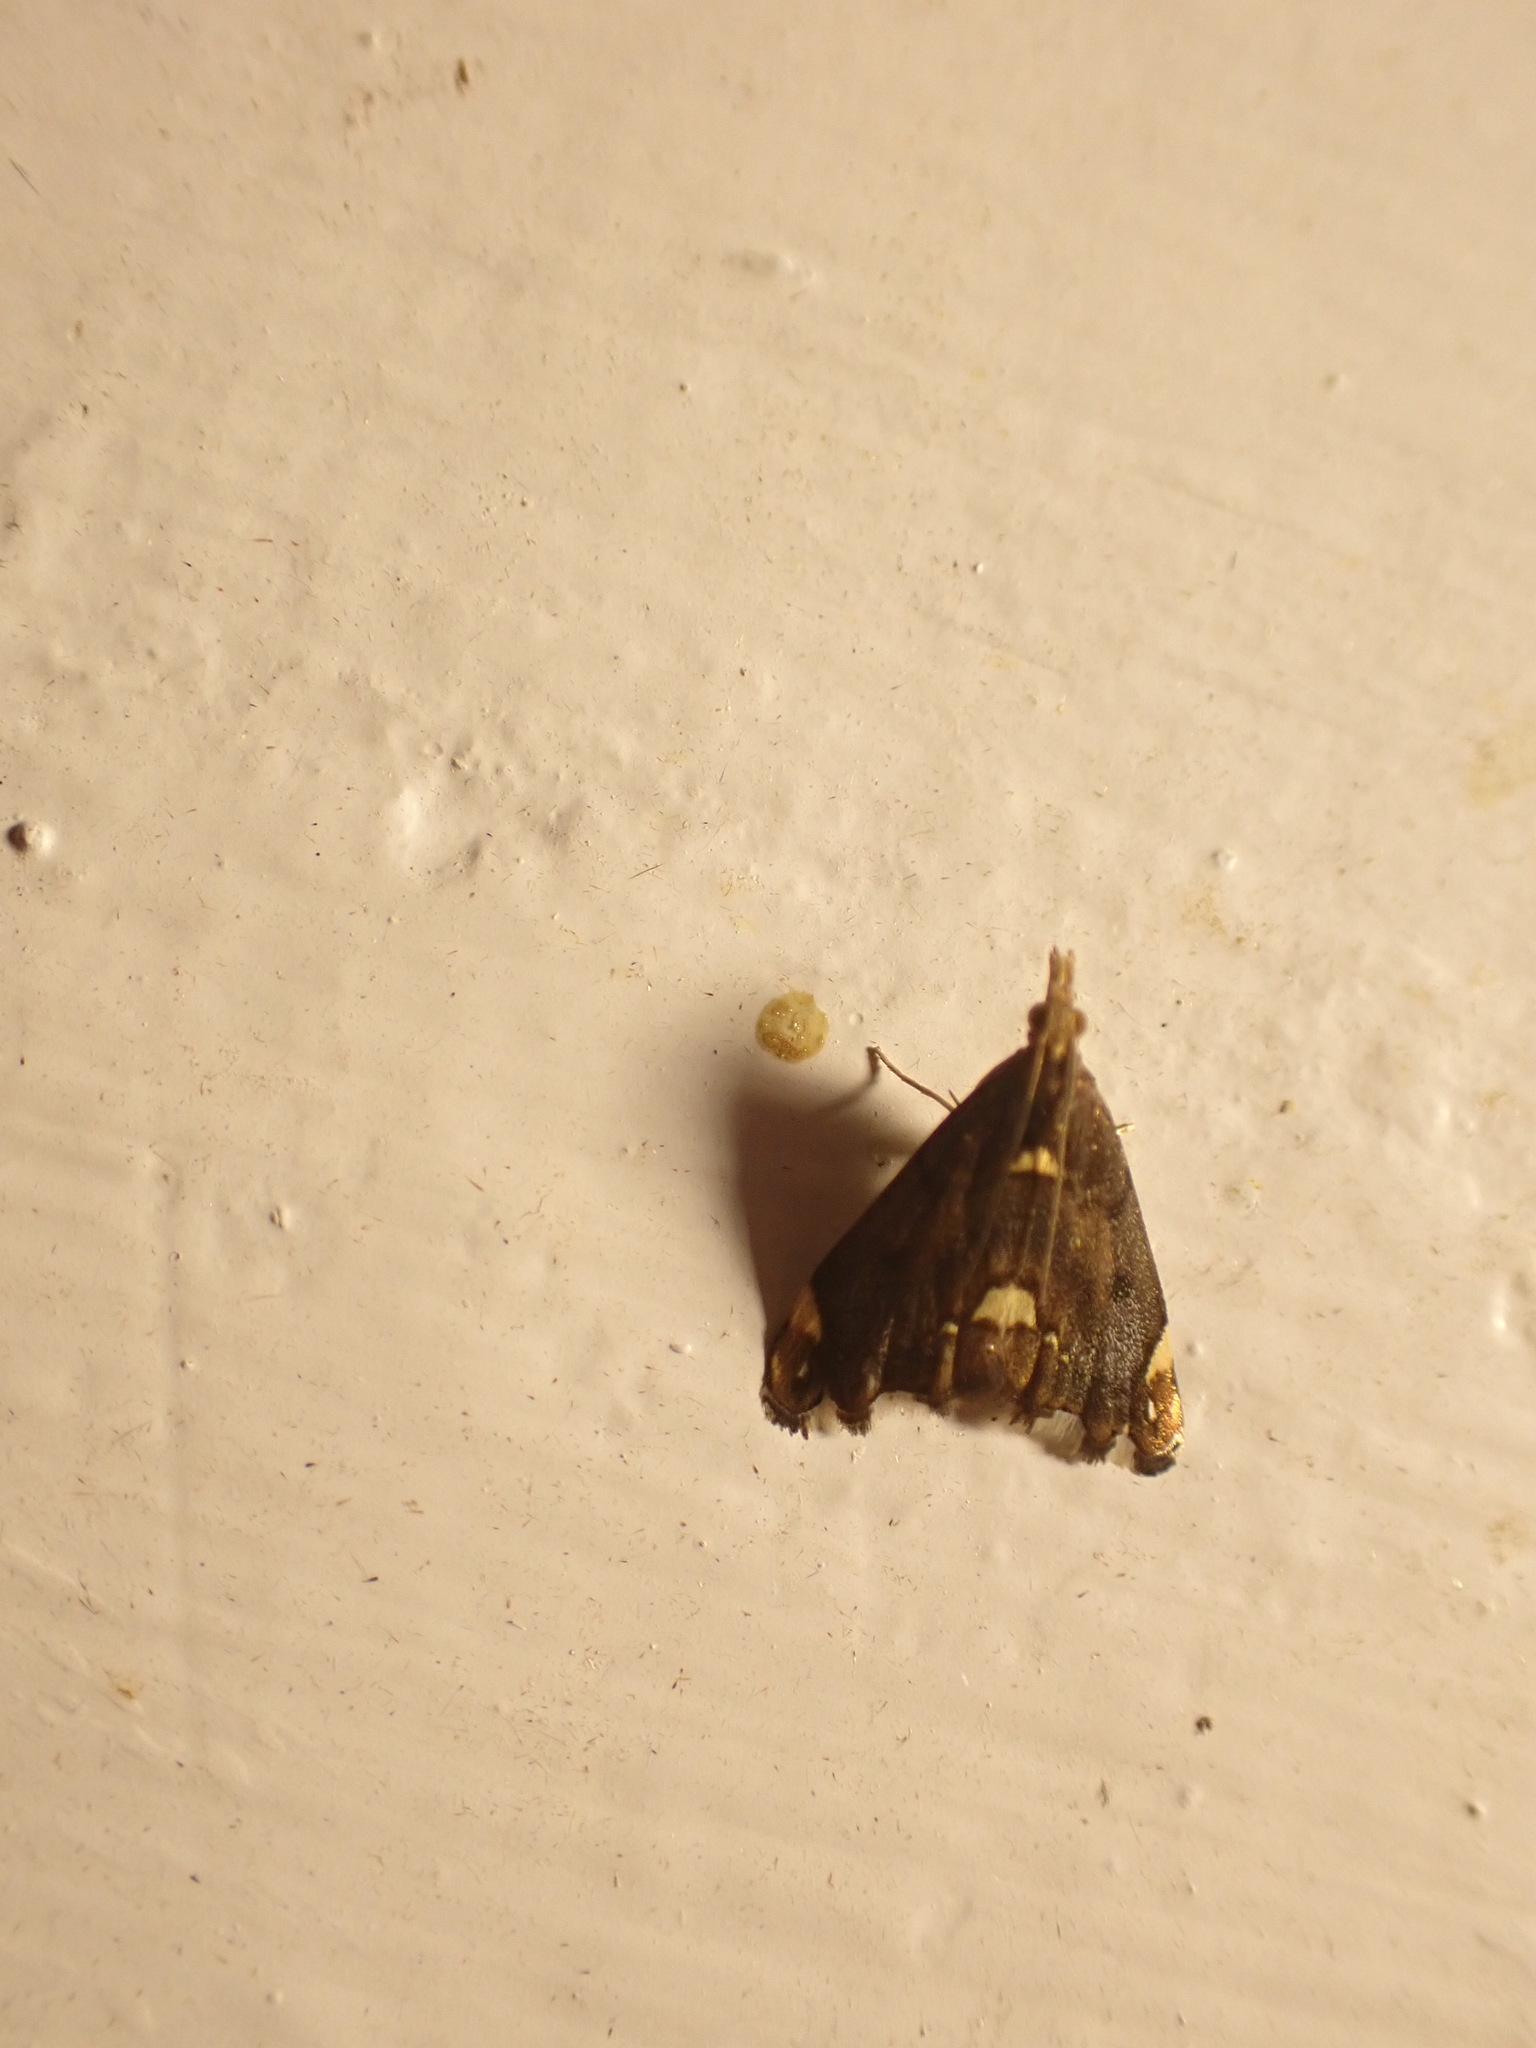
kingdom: Animalia
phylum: Arthropoda
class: Insecta
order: Lepidoptera
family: Crambidae
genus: Glaucocharis
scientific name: Glaucocharis pyrsophanes
